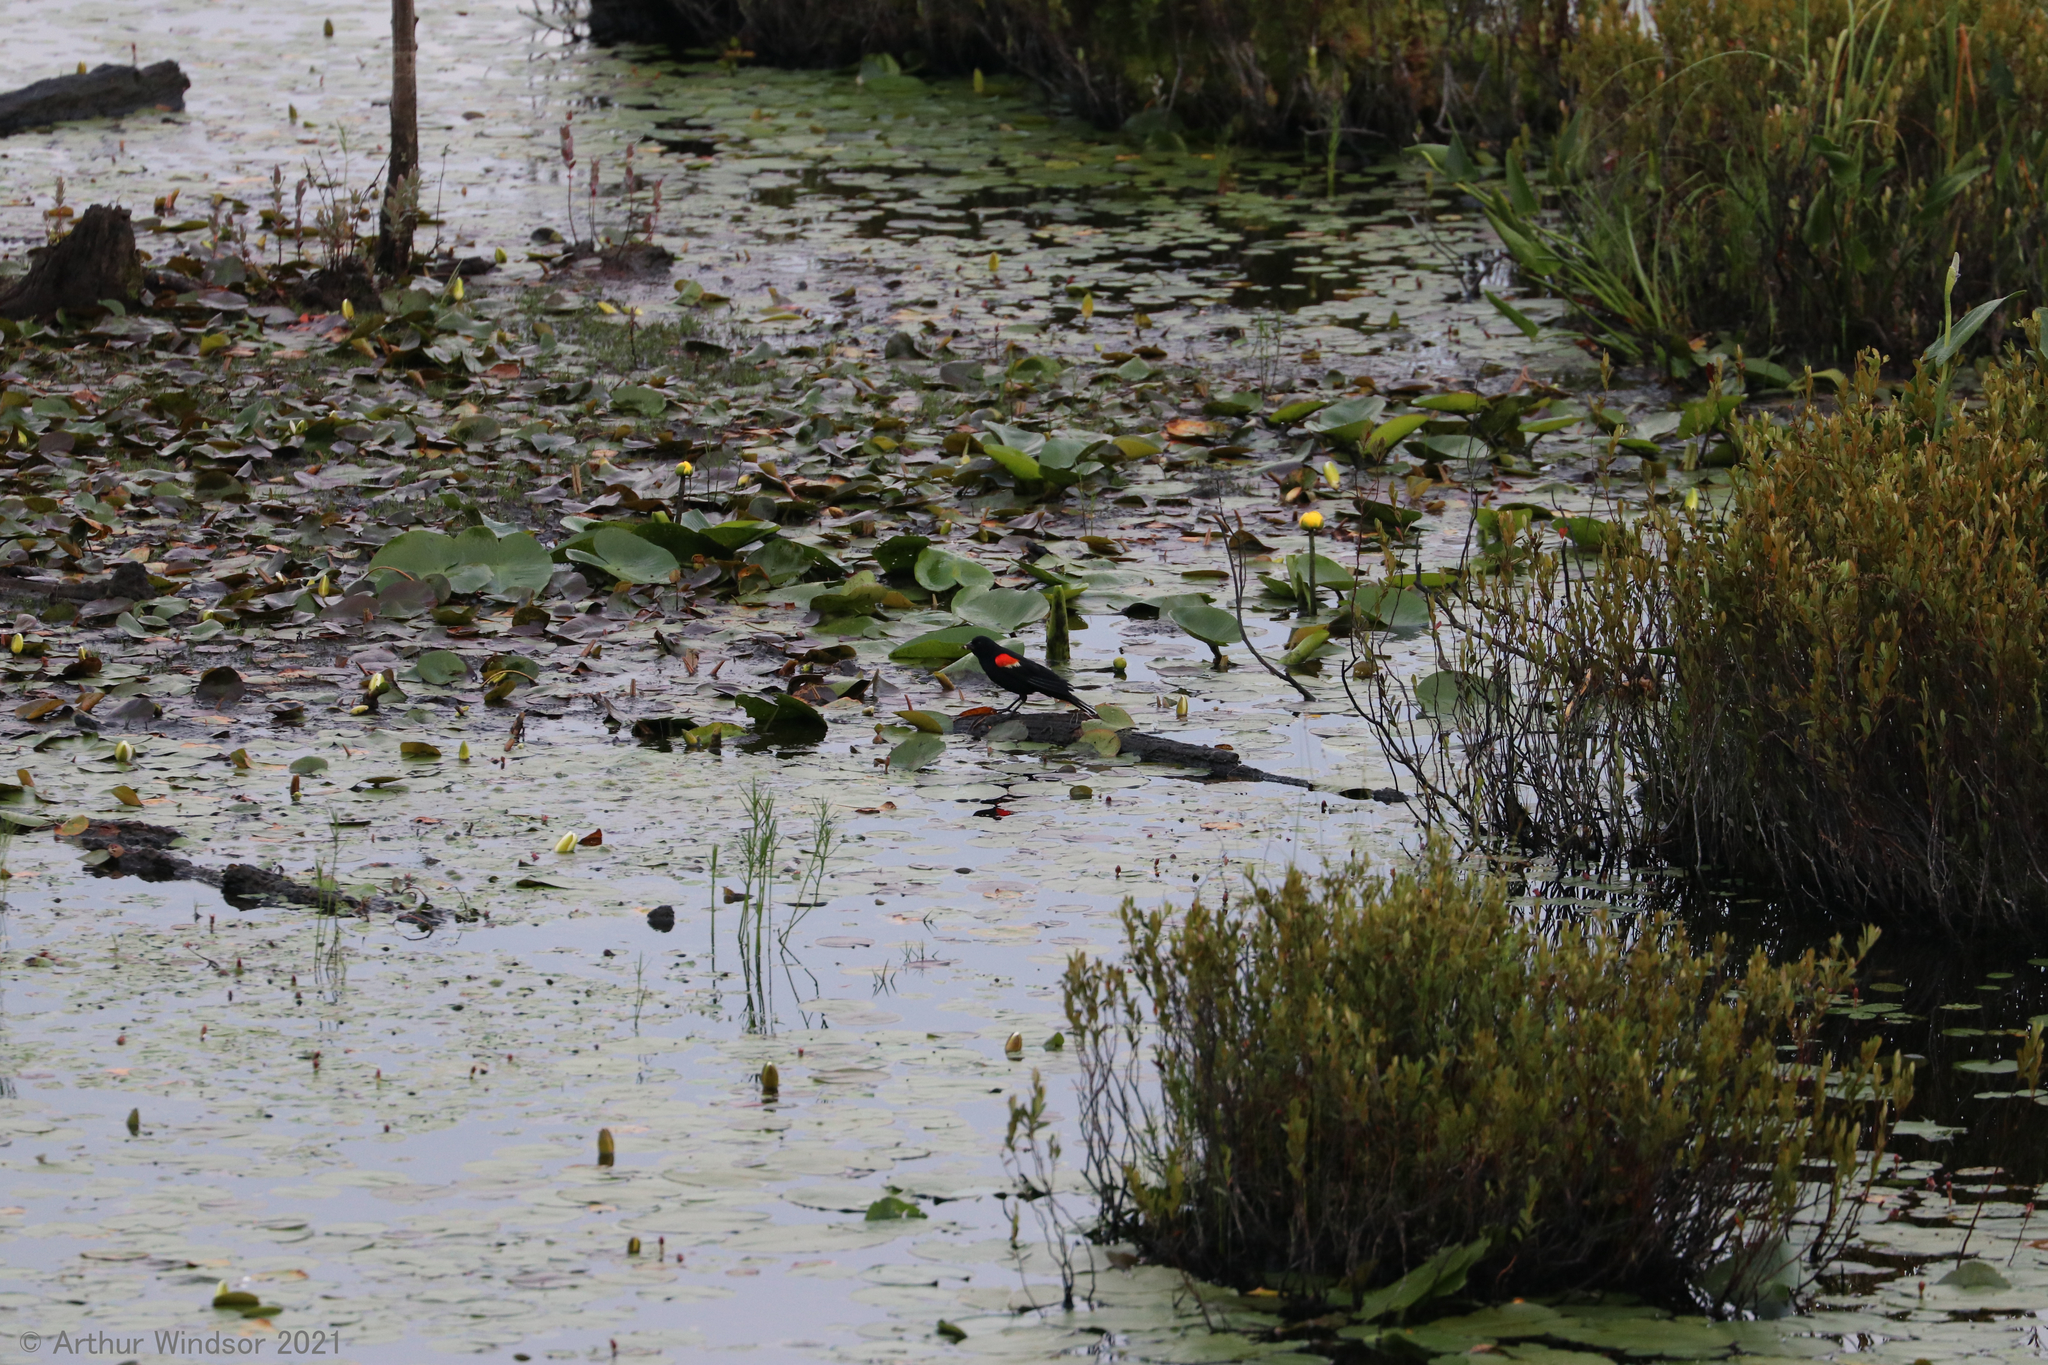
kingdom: Animalia
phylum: Chordata
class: Aves
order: Passeriformes
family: Icteridae
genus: Agelaius
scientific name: Agelaius phoeniceus
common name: Red-winged blackbird
